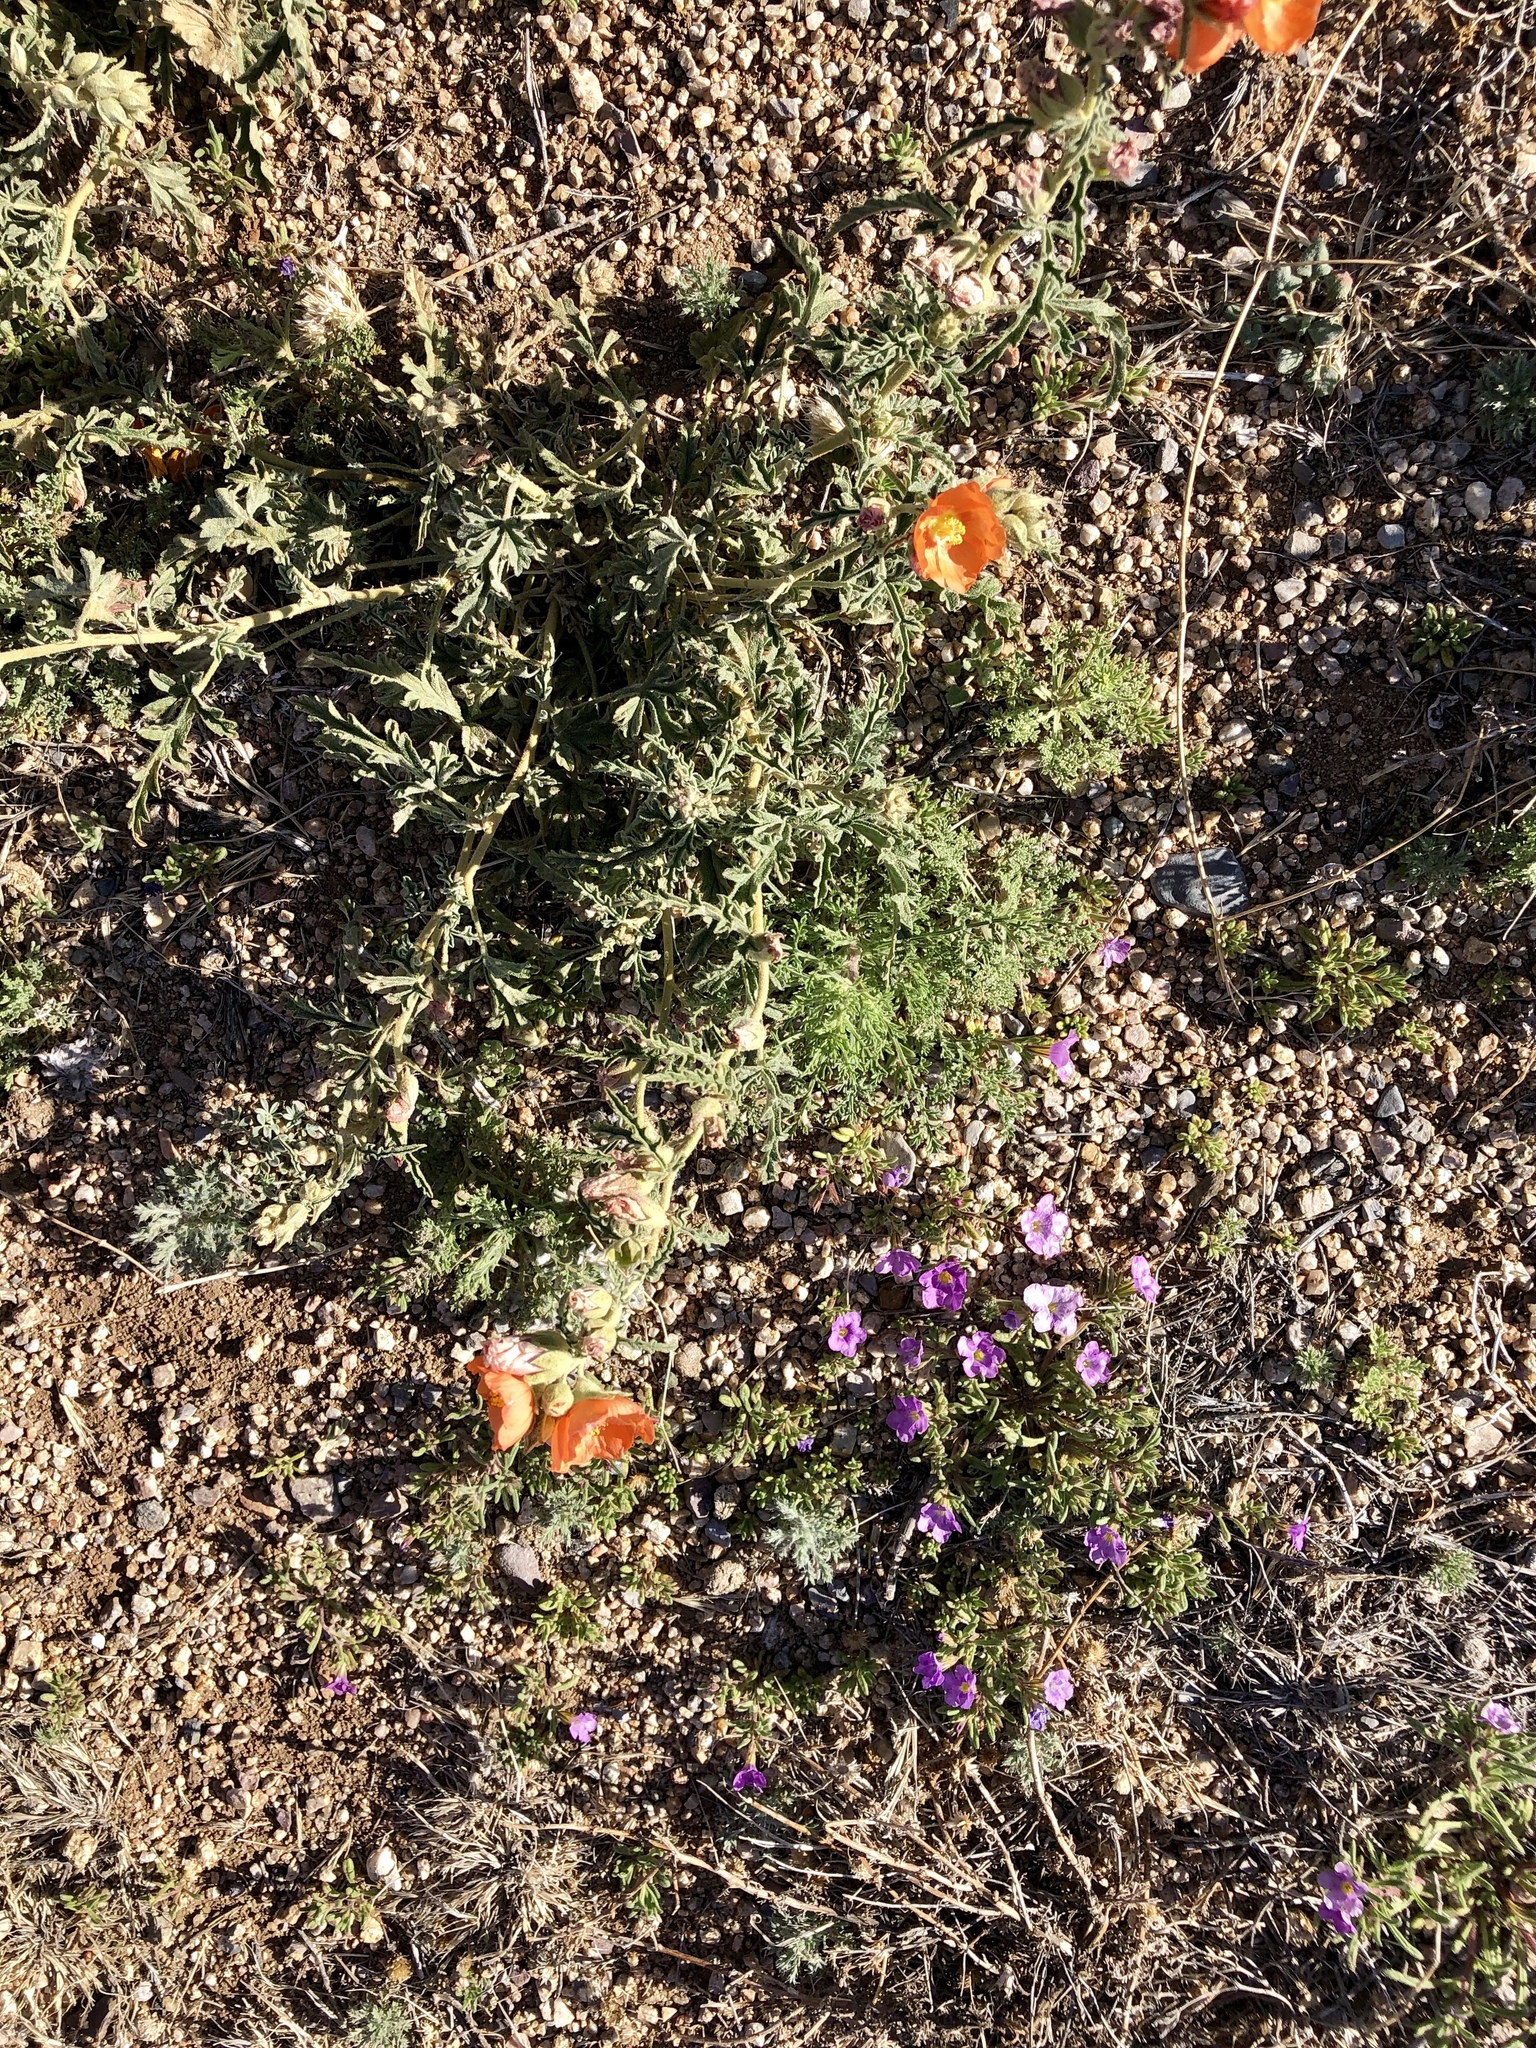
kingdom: Plantae
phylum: Tracheophyta
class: Magnoliopsida
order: Malvales
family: Malvaceae
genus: Sphaeralcea
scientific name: Sphaeralcea hastulata
